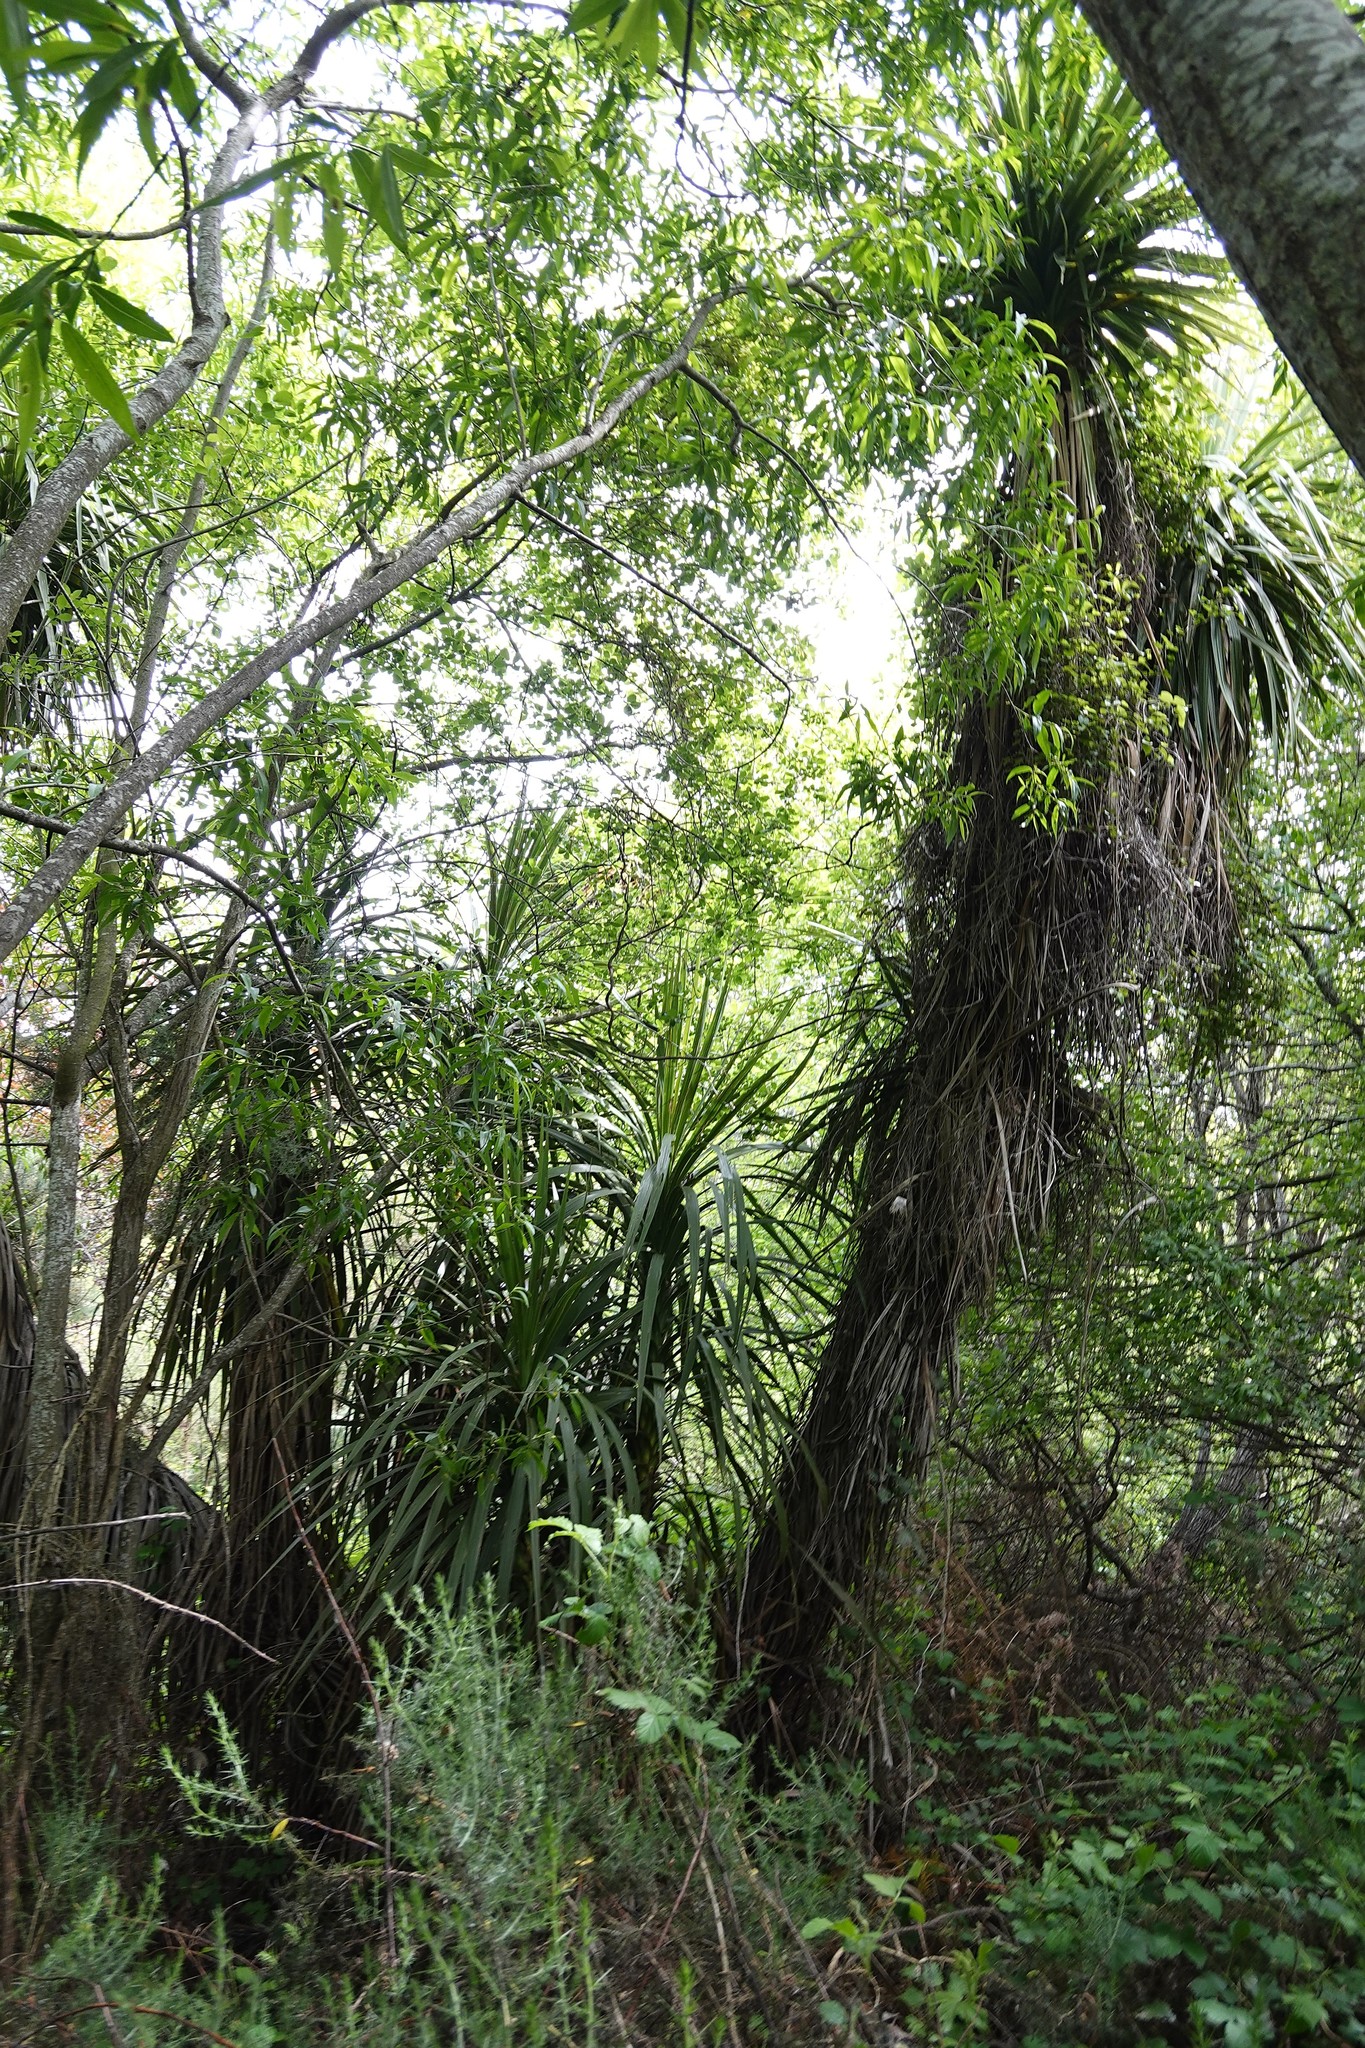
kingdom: Plantae
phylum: Tracheophyta
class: Liliopsida
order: Asparagales
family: Asparagaceae
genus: Cordyline
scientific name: Cordyline australis
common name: Cabbage-palm
